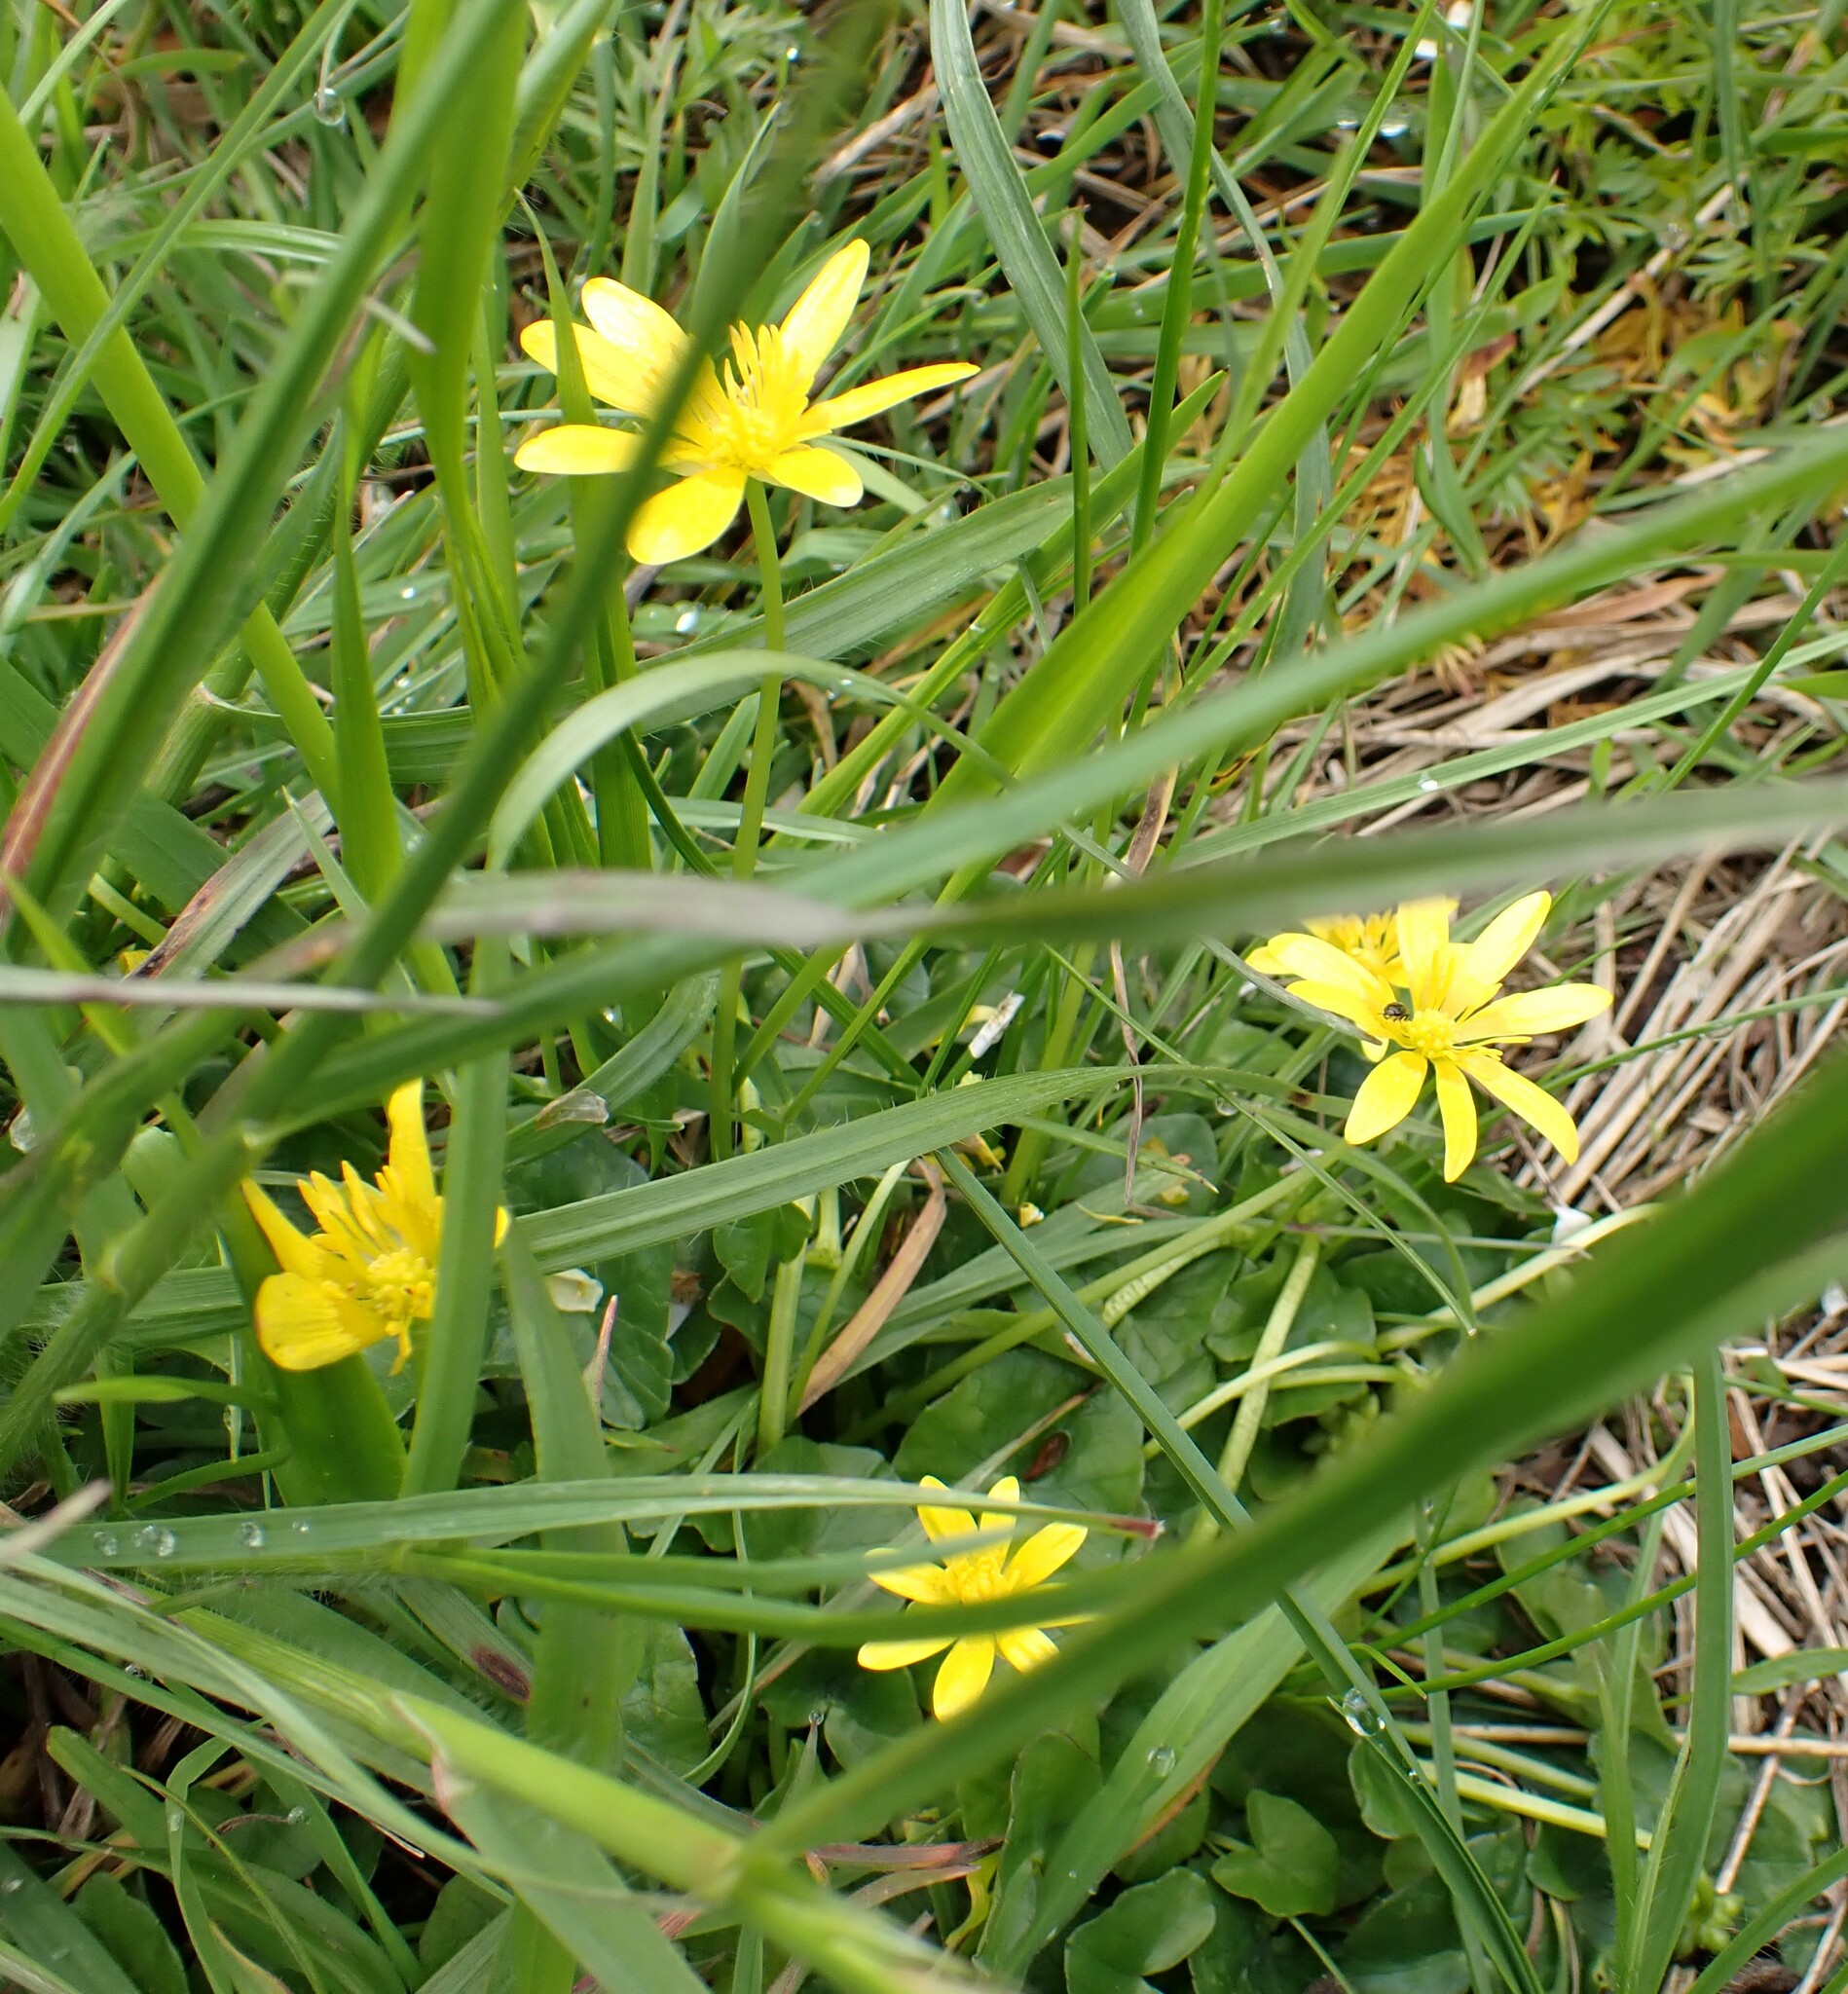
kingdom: Plantae
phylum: Tracheophyta
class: Magnoliopsida
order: Ranunculales
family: Ranunculaceae
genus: Ficaria
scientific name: Ficaria verna
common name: Lesser celandine
